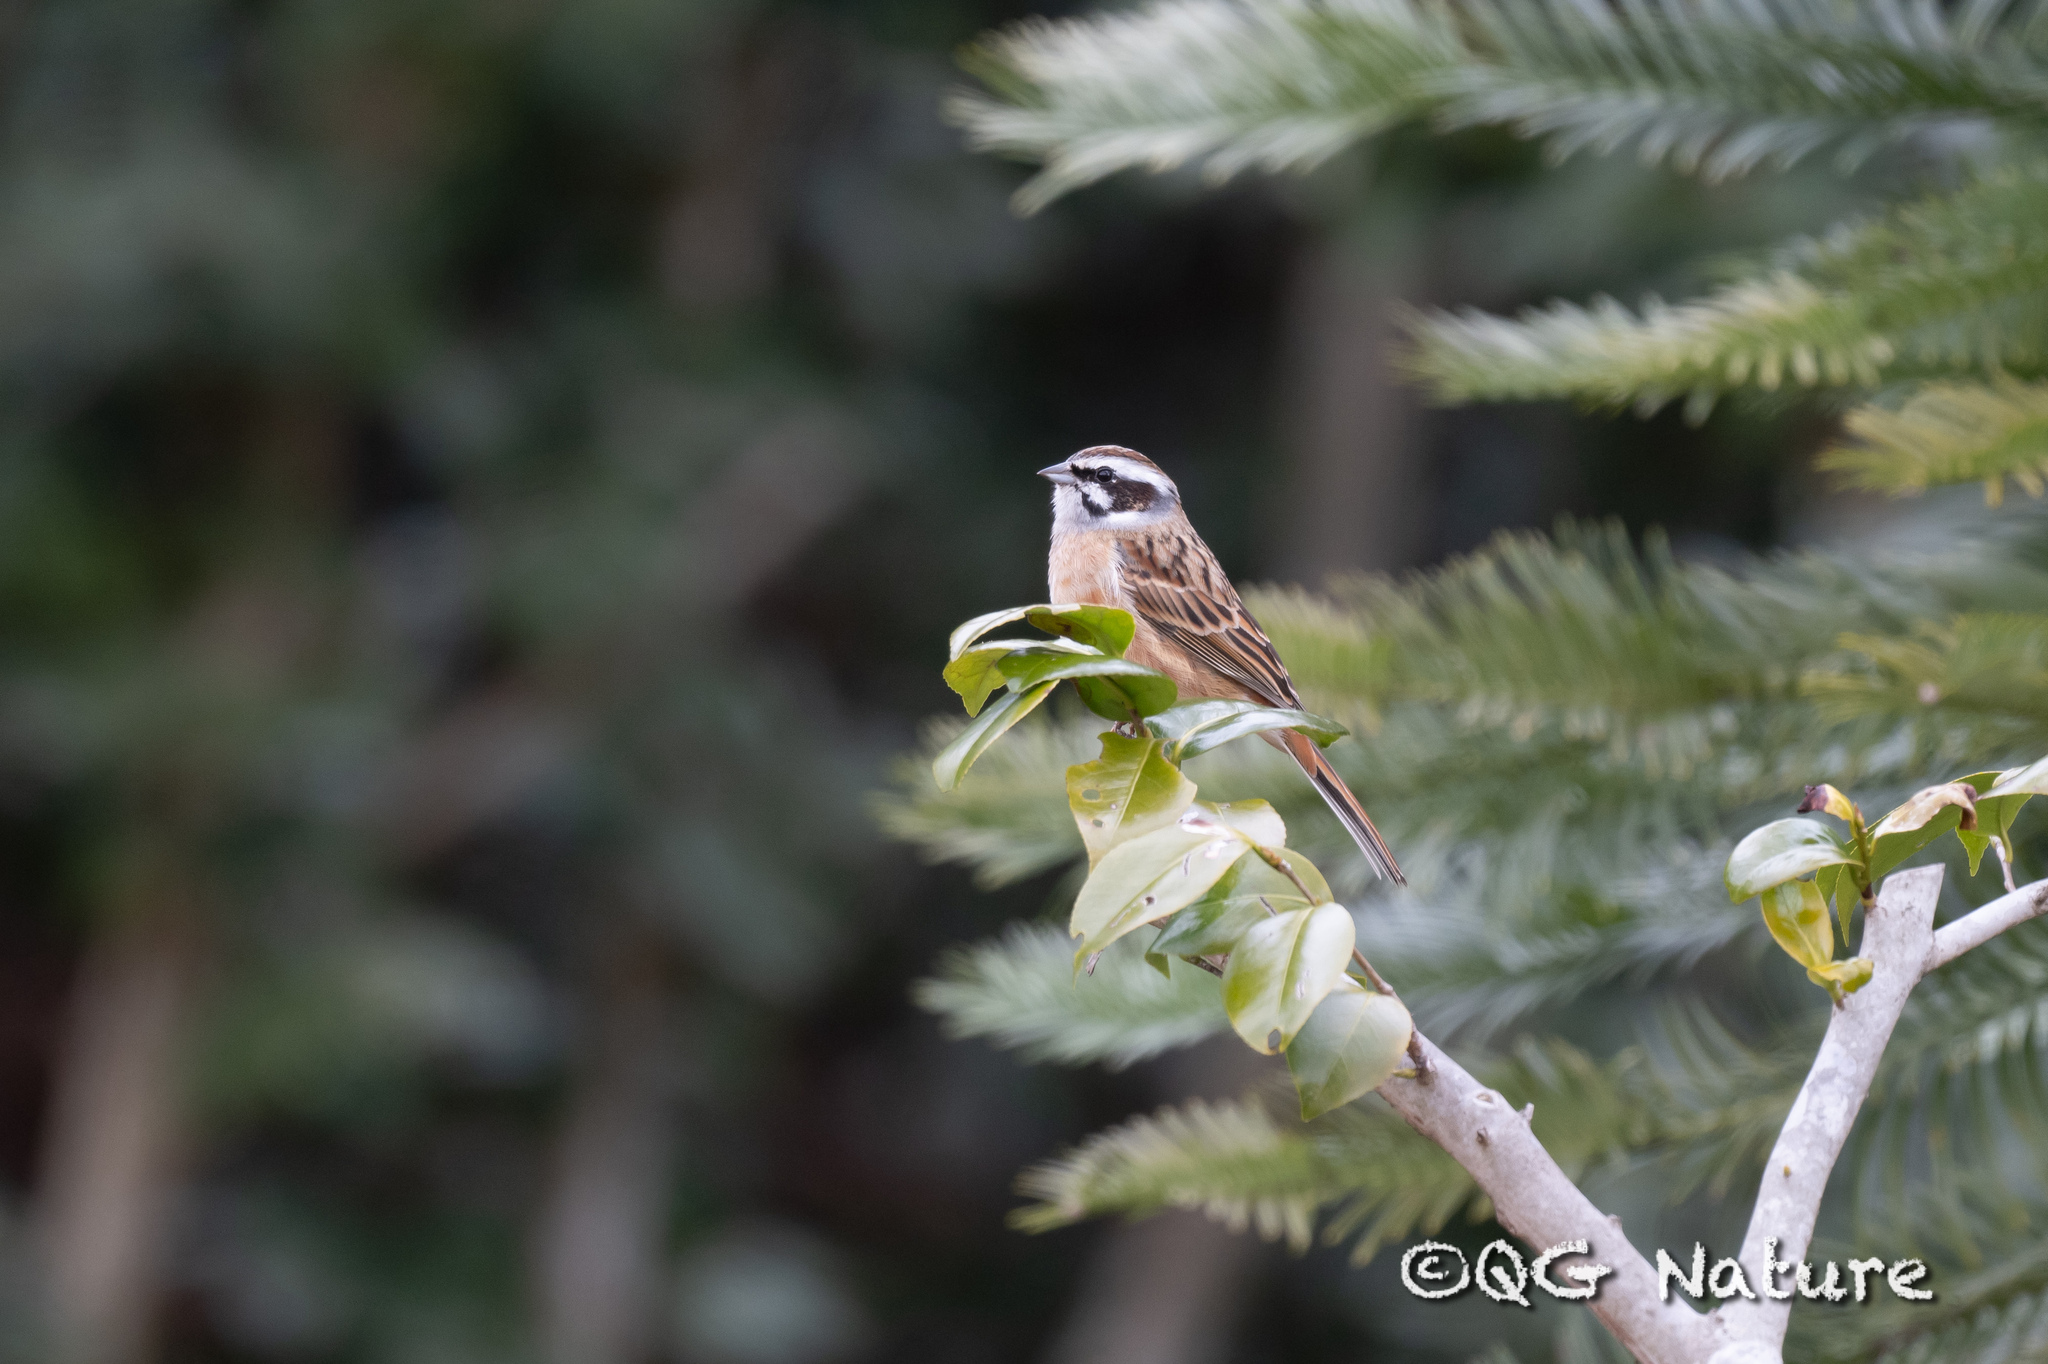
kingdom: Animalia
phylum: Chordata
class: Aves
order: Passeriformes
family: Emberizidae
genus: Emberiza
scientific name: Emberiza cioides
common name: Meadow bunting
